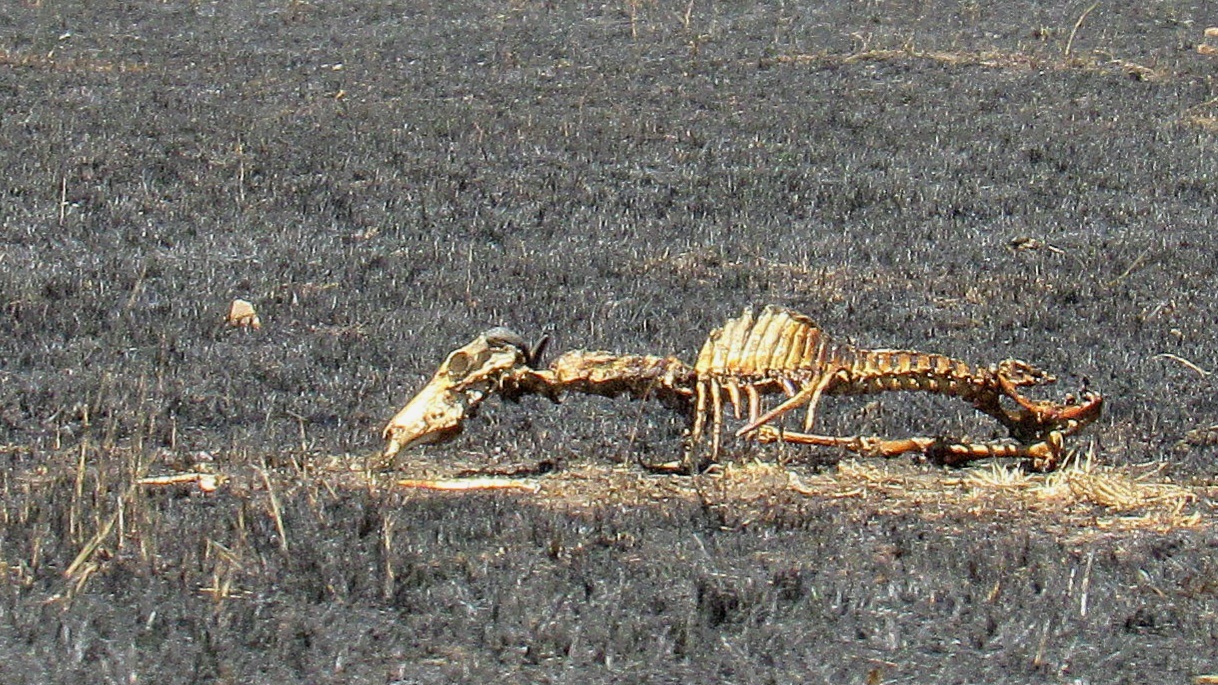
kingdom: Animalia
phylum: Chordata
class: Mammalia
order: Artiodactyla
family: Bovidae
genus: Connochaetes
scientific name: Connochaetes taurinus
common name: Blue wildebeest
